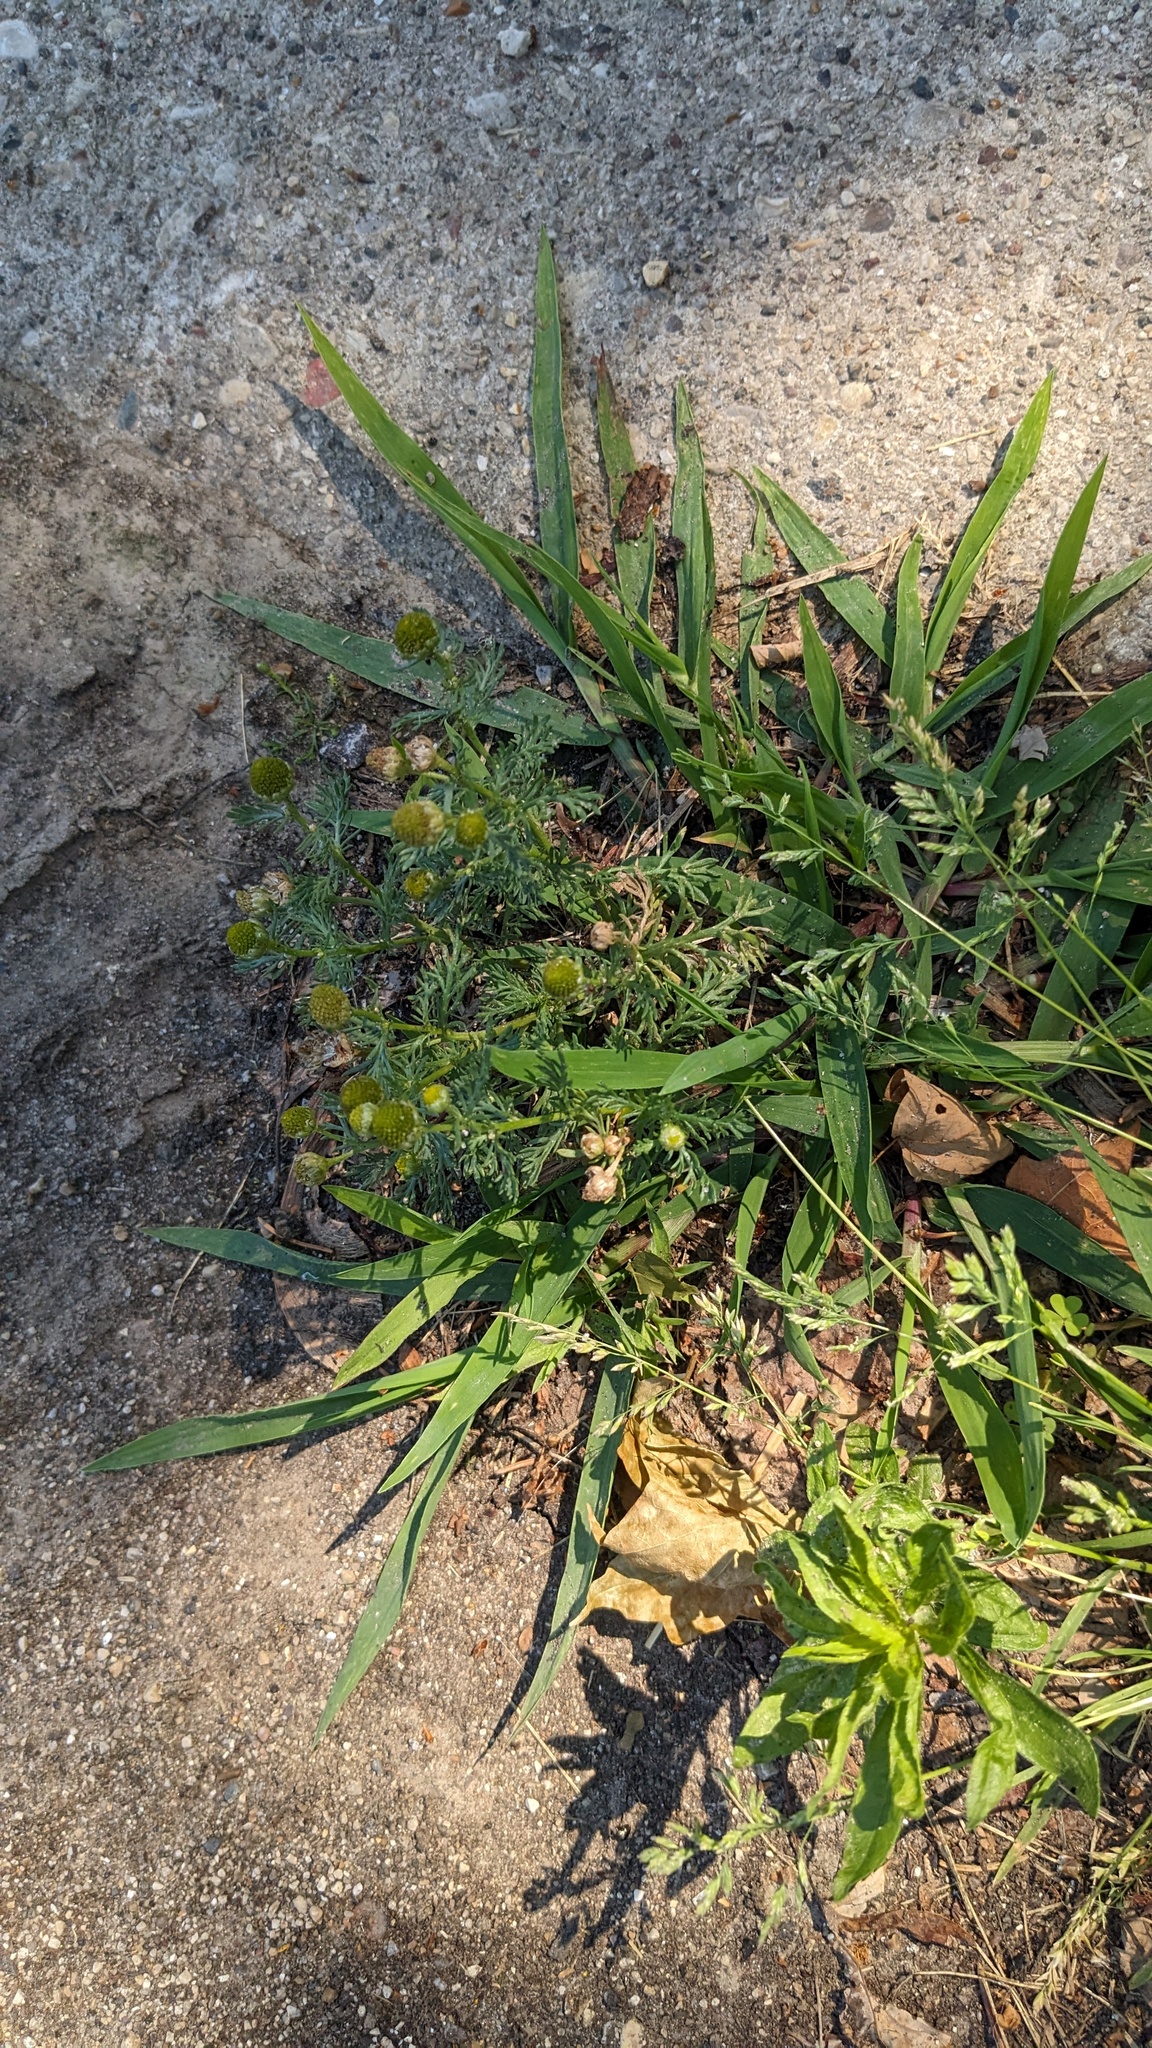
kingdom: Plantae
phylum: Tracheophyta
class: Magnoliopsida
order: Asterales
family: Asteraceae
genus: Matricaria
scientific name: Matricaria discoidea
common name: Disc mayweed
